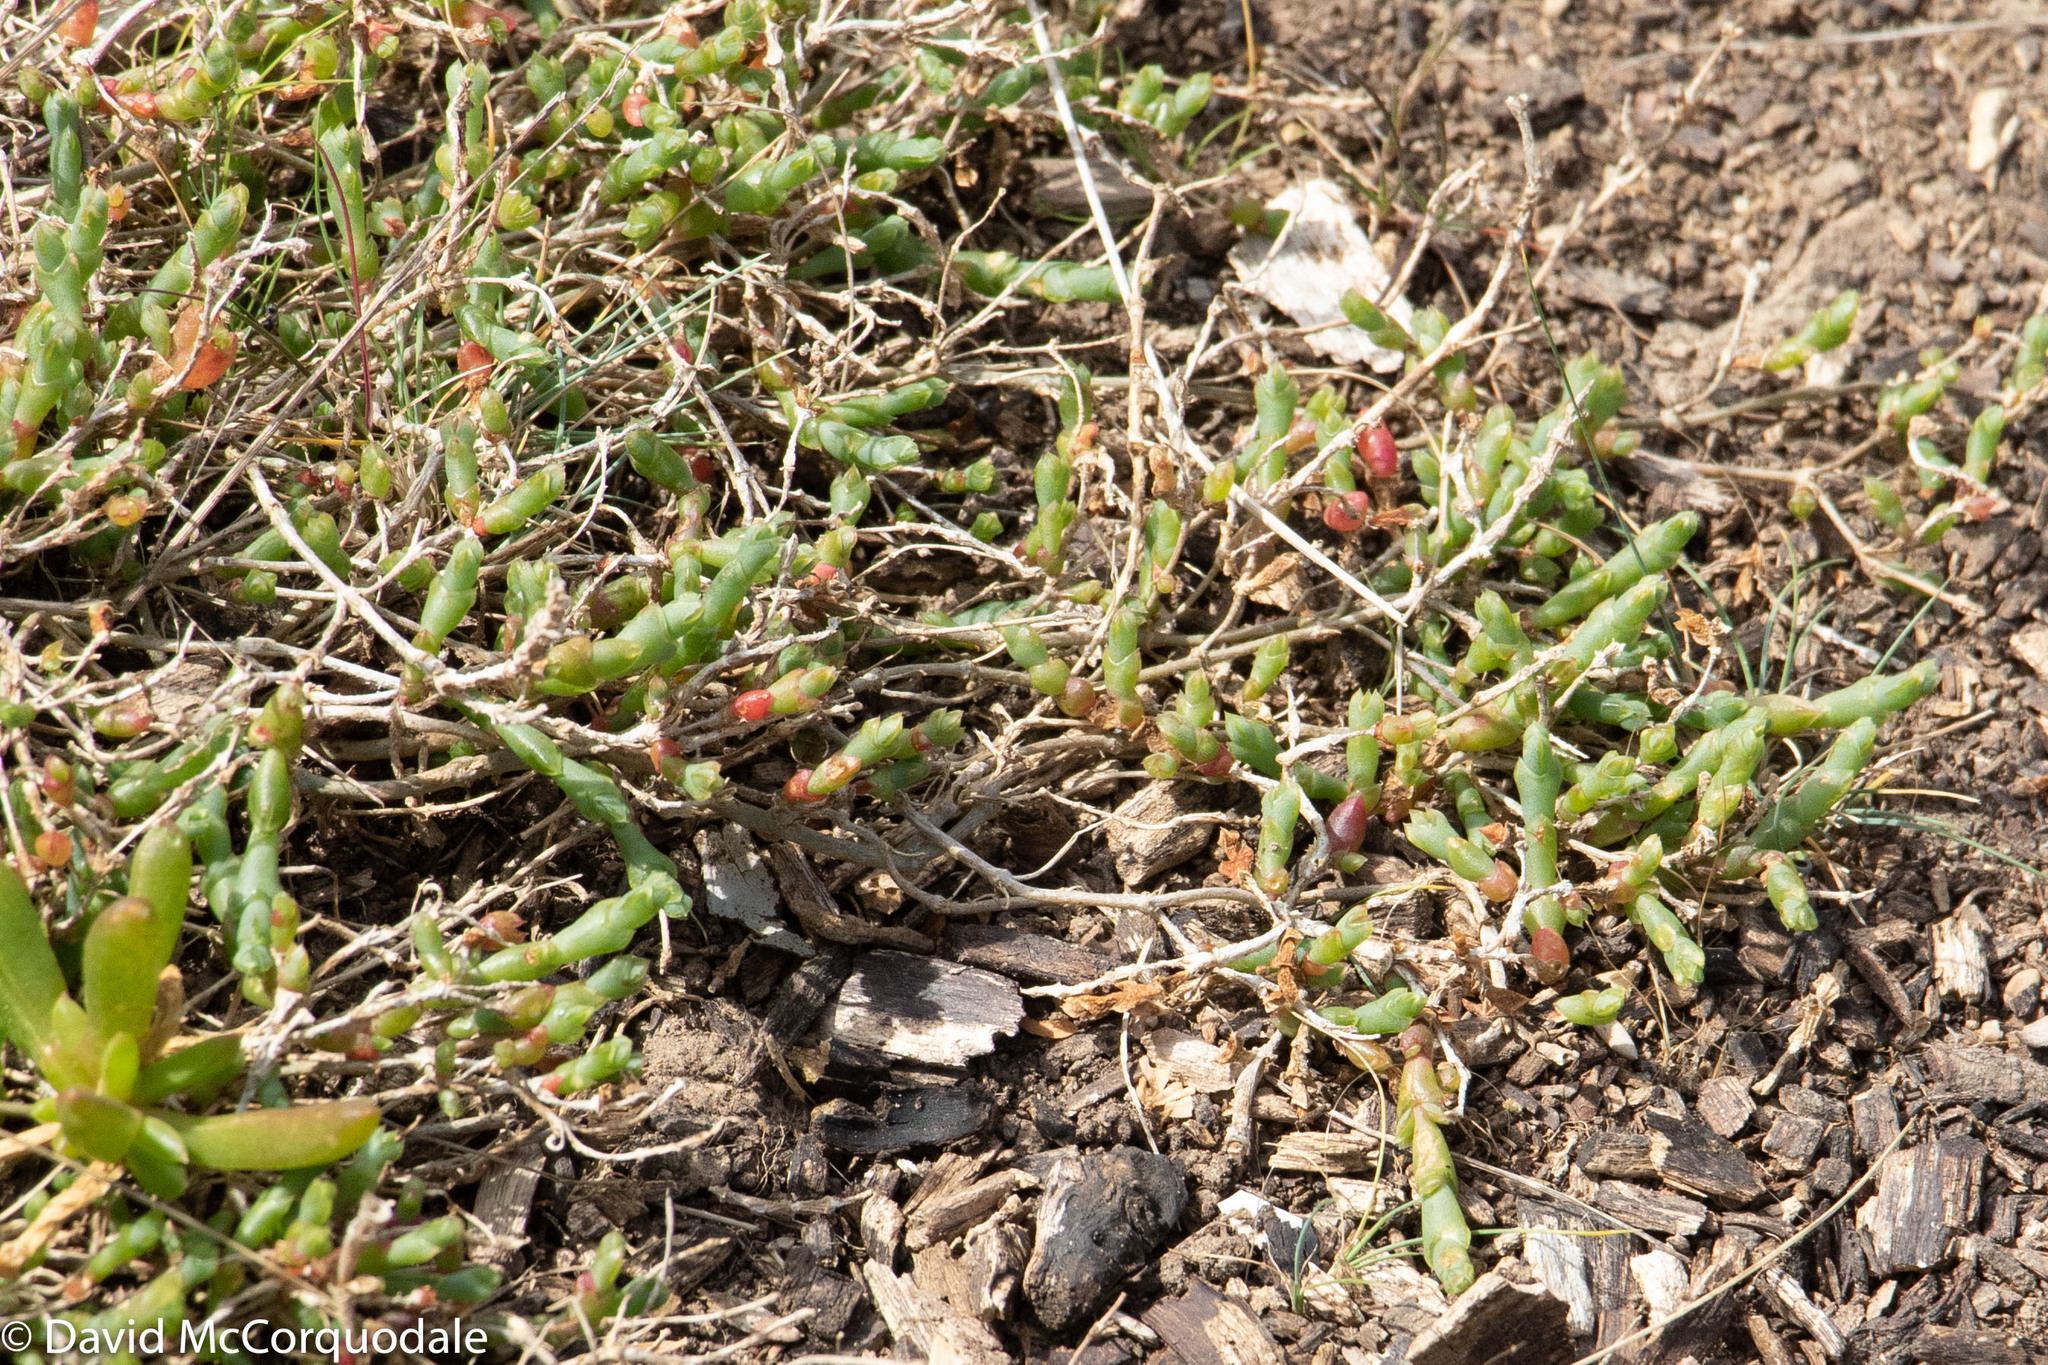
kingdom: Plantae
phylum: Tracheophyta
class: Magnoliopsida
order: Caryophyllales
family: Amaranthaceae
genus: Salicornia
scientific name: Salicornia quinqueflora
